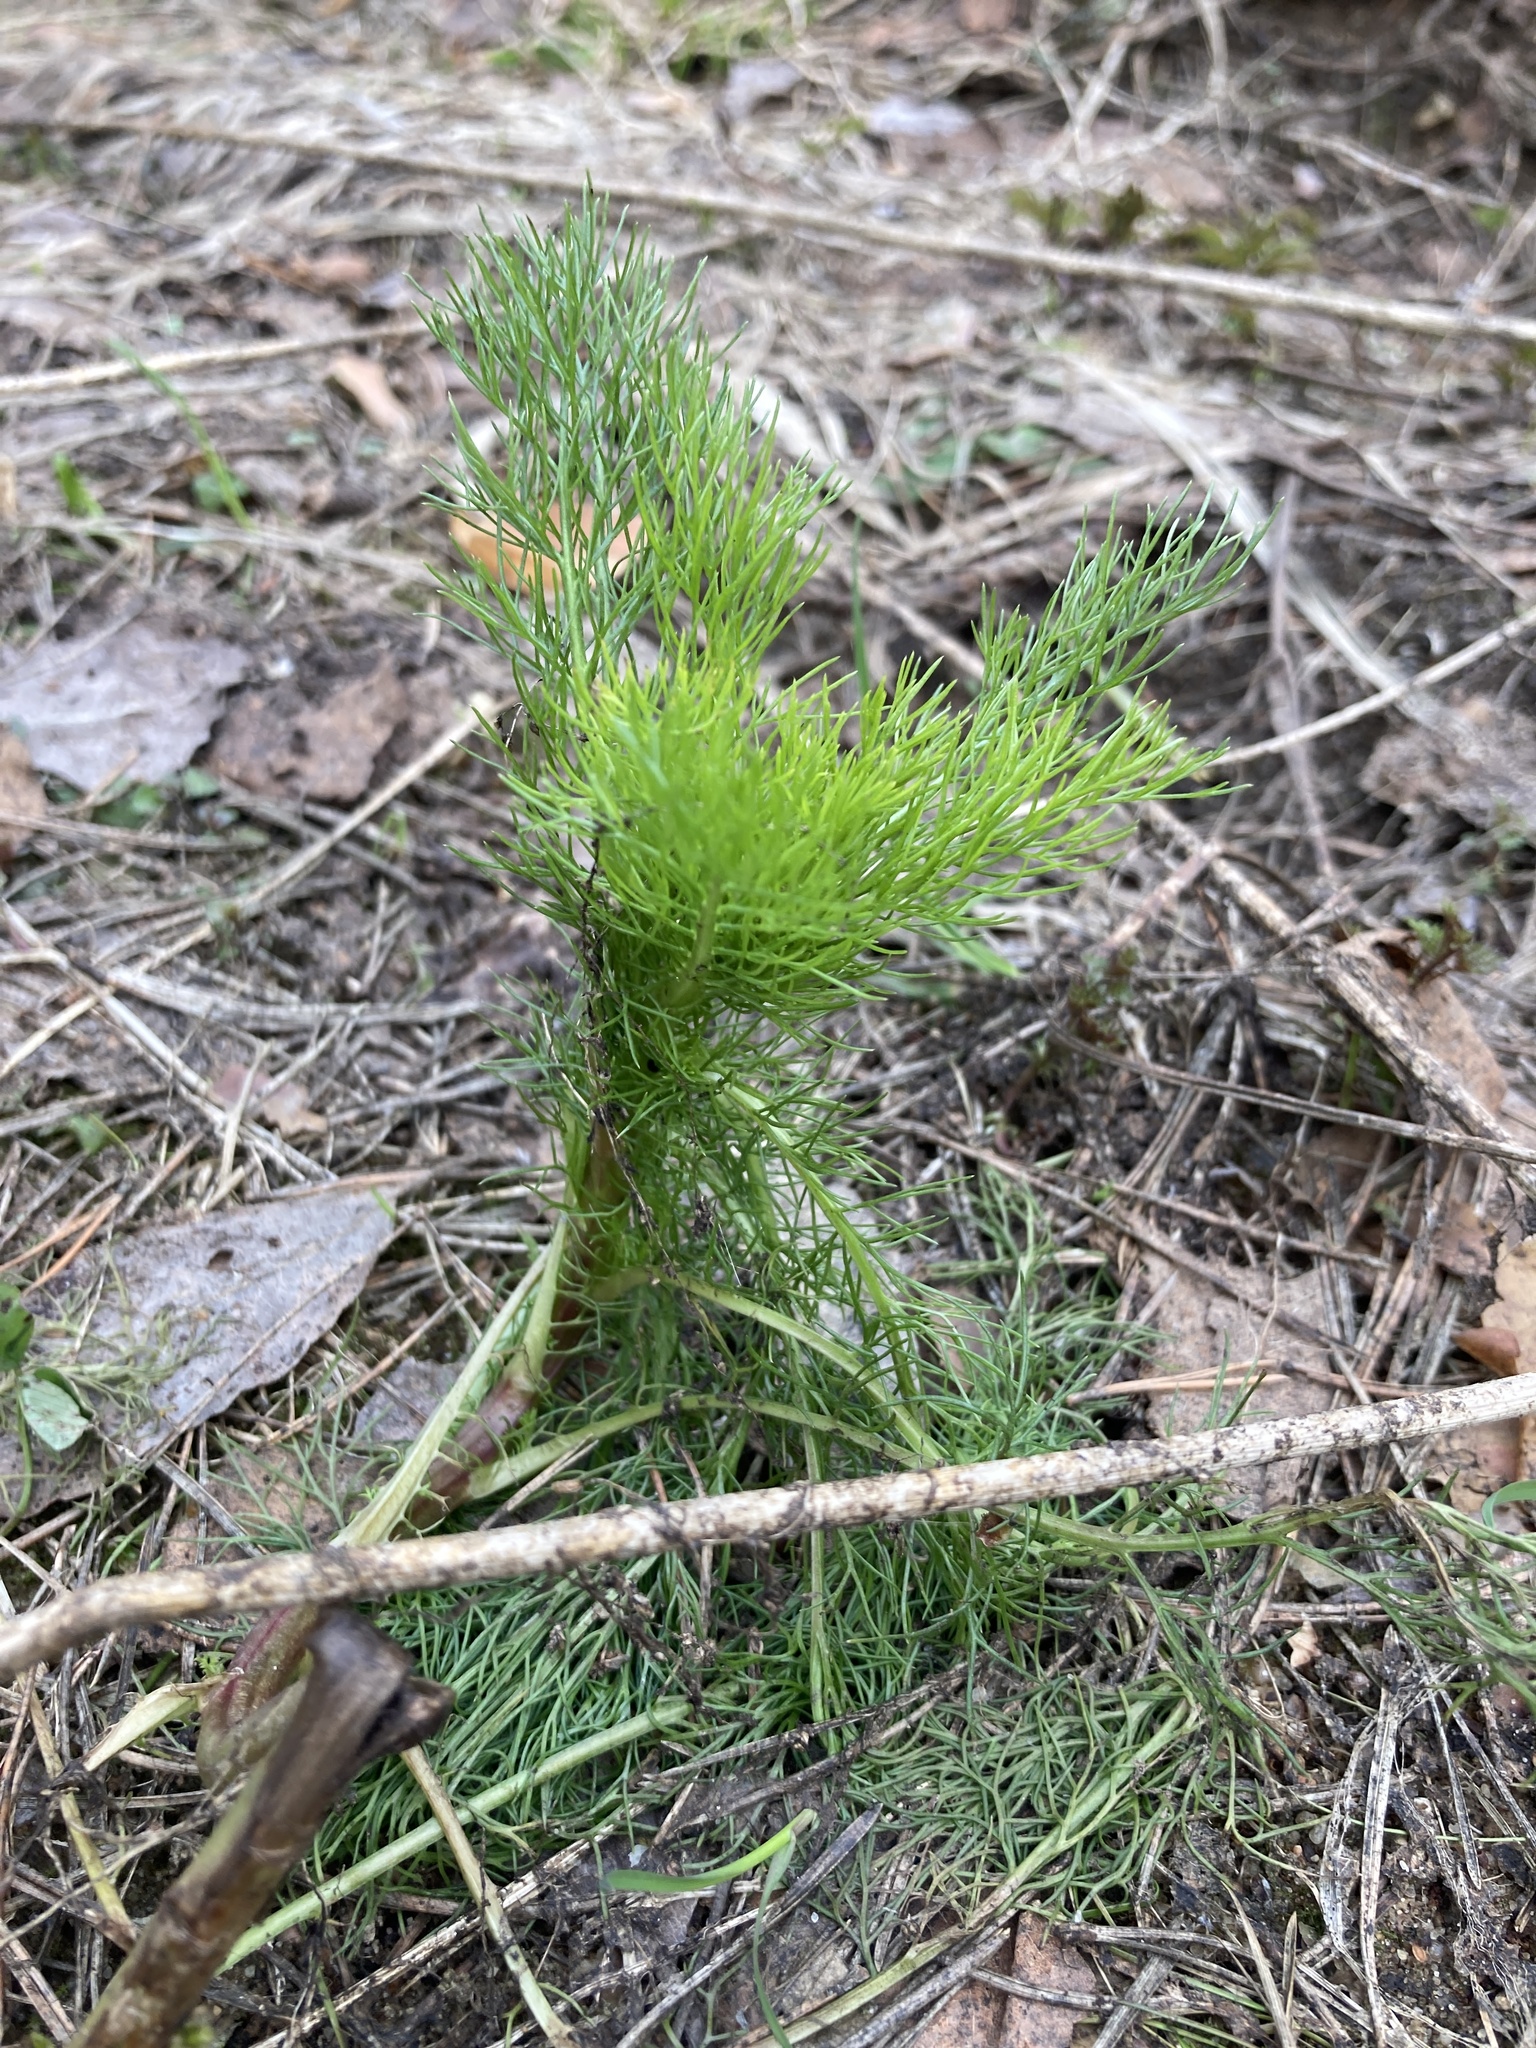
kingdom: Plantae
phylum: Tracheophyta
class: Magnoliopsida
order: Asterales
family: Asteraceae
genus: Tripleurospermum
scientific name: Tripleurospermum inodorum
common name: Scentless mayweed
